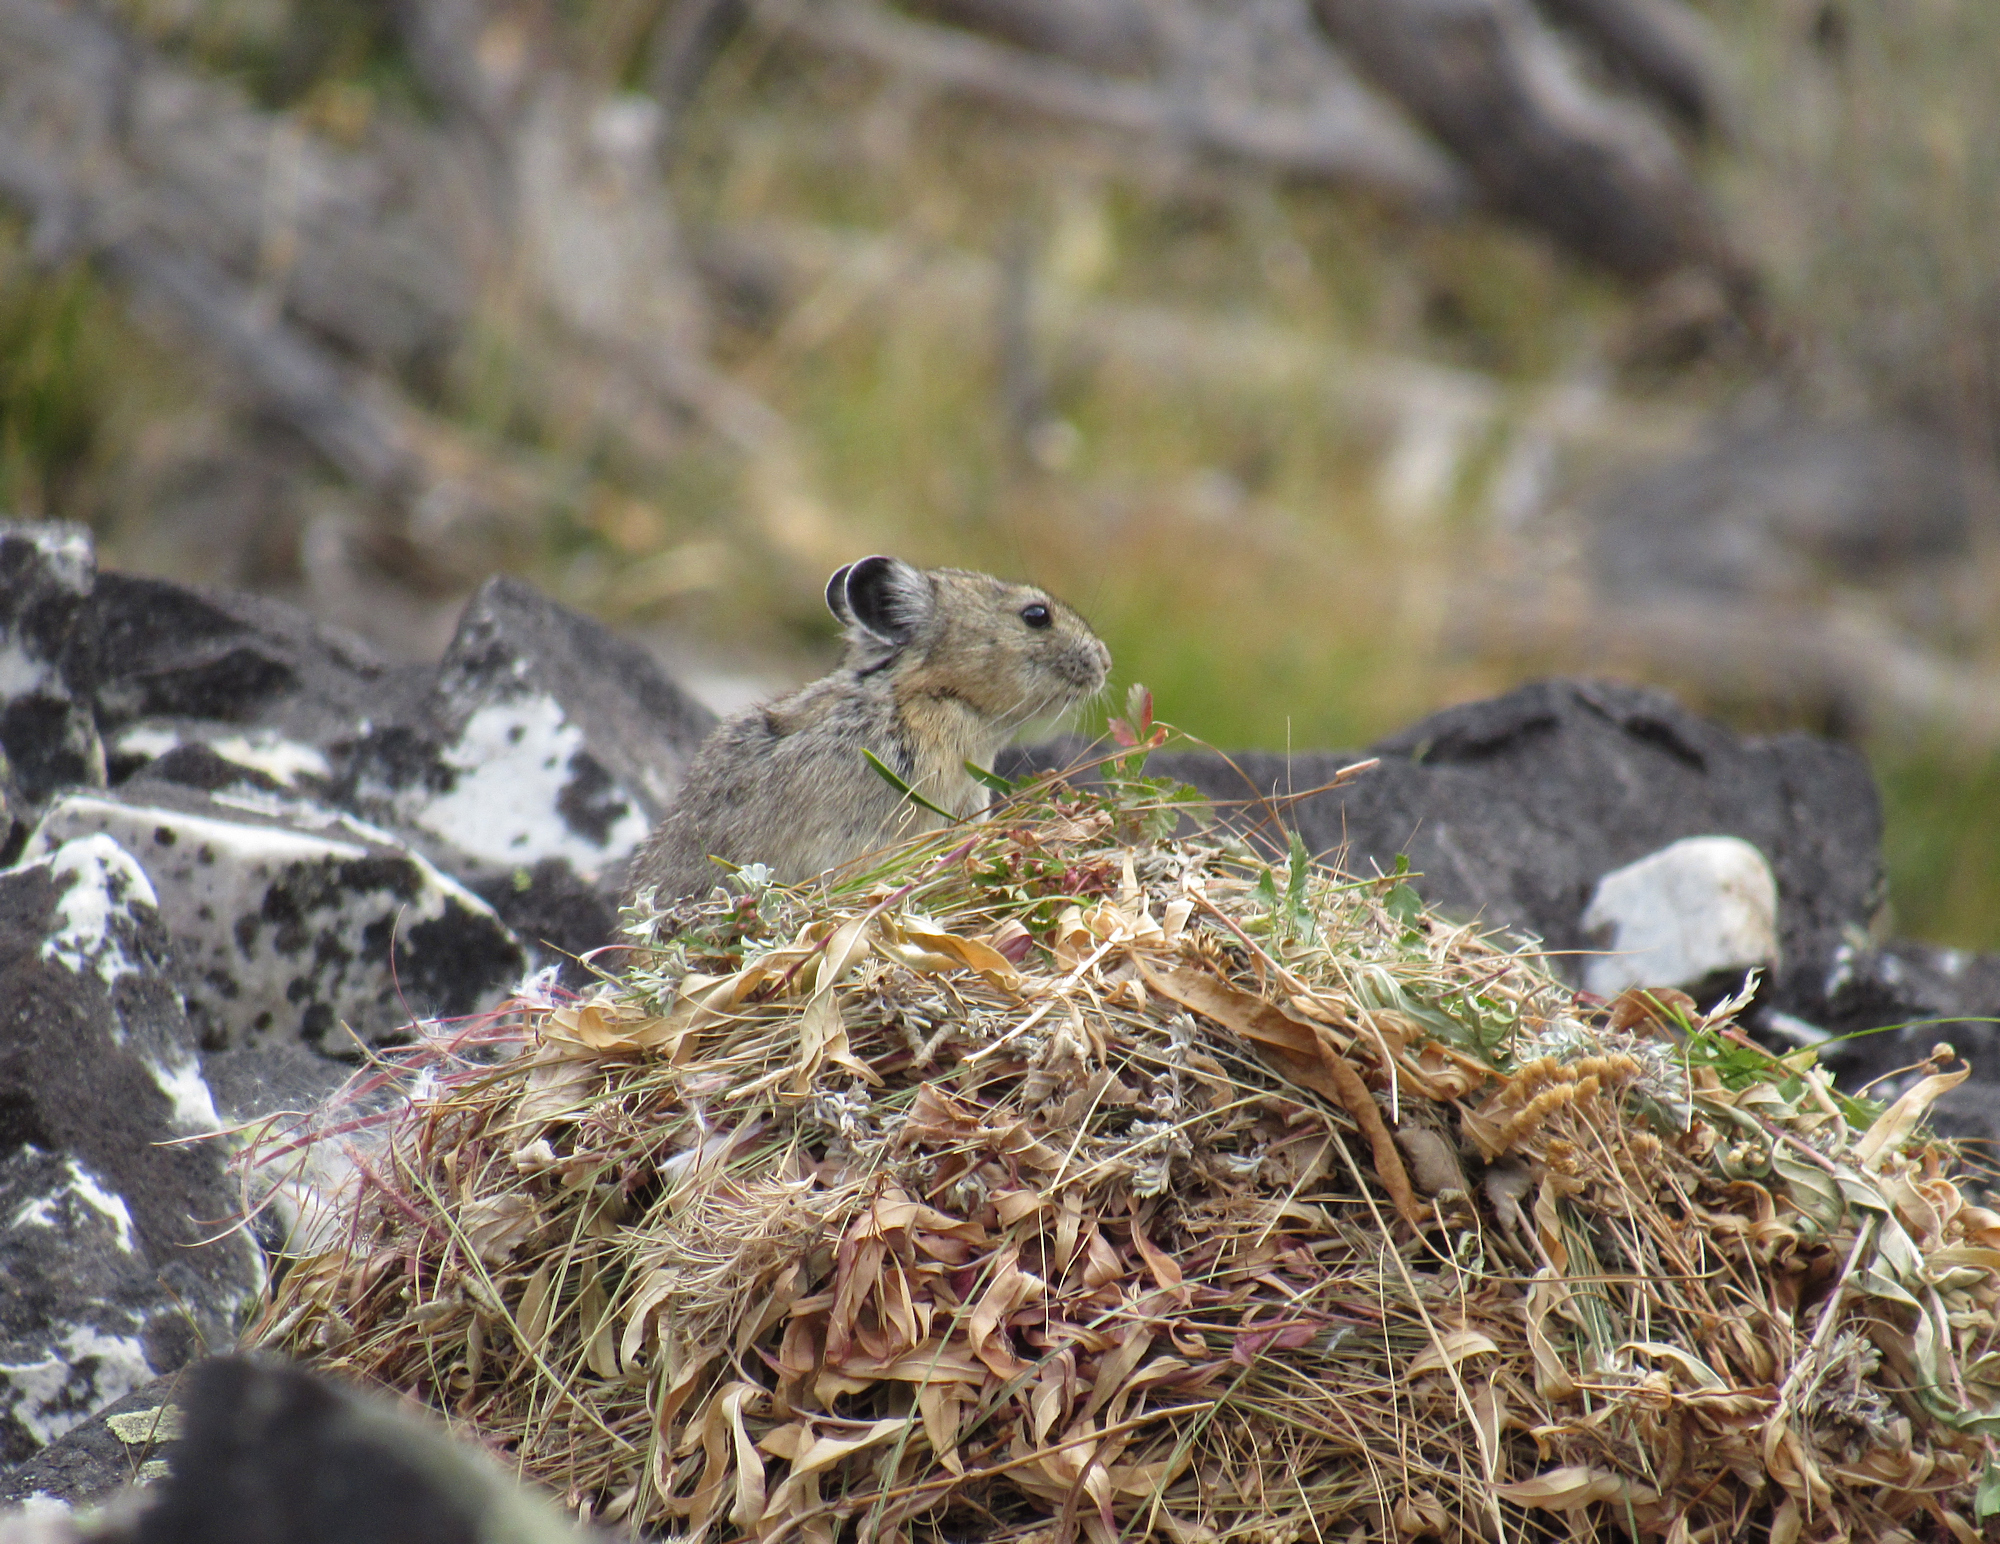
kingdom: Animalia
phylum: Chordata
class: Mammalia
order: Lagomorpha
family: Ochotonidae
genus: Ochotona
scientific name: Ochotona princeps
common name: American pika
